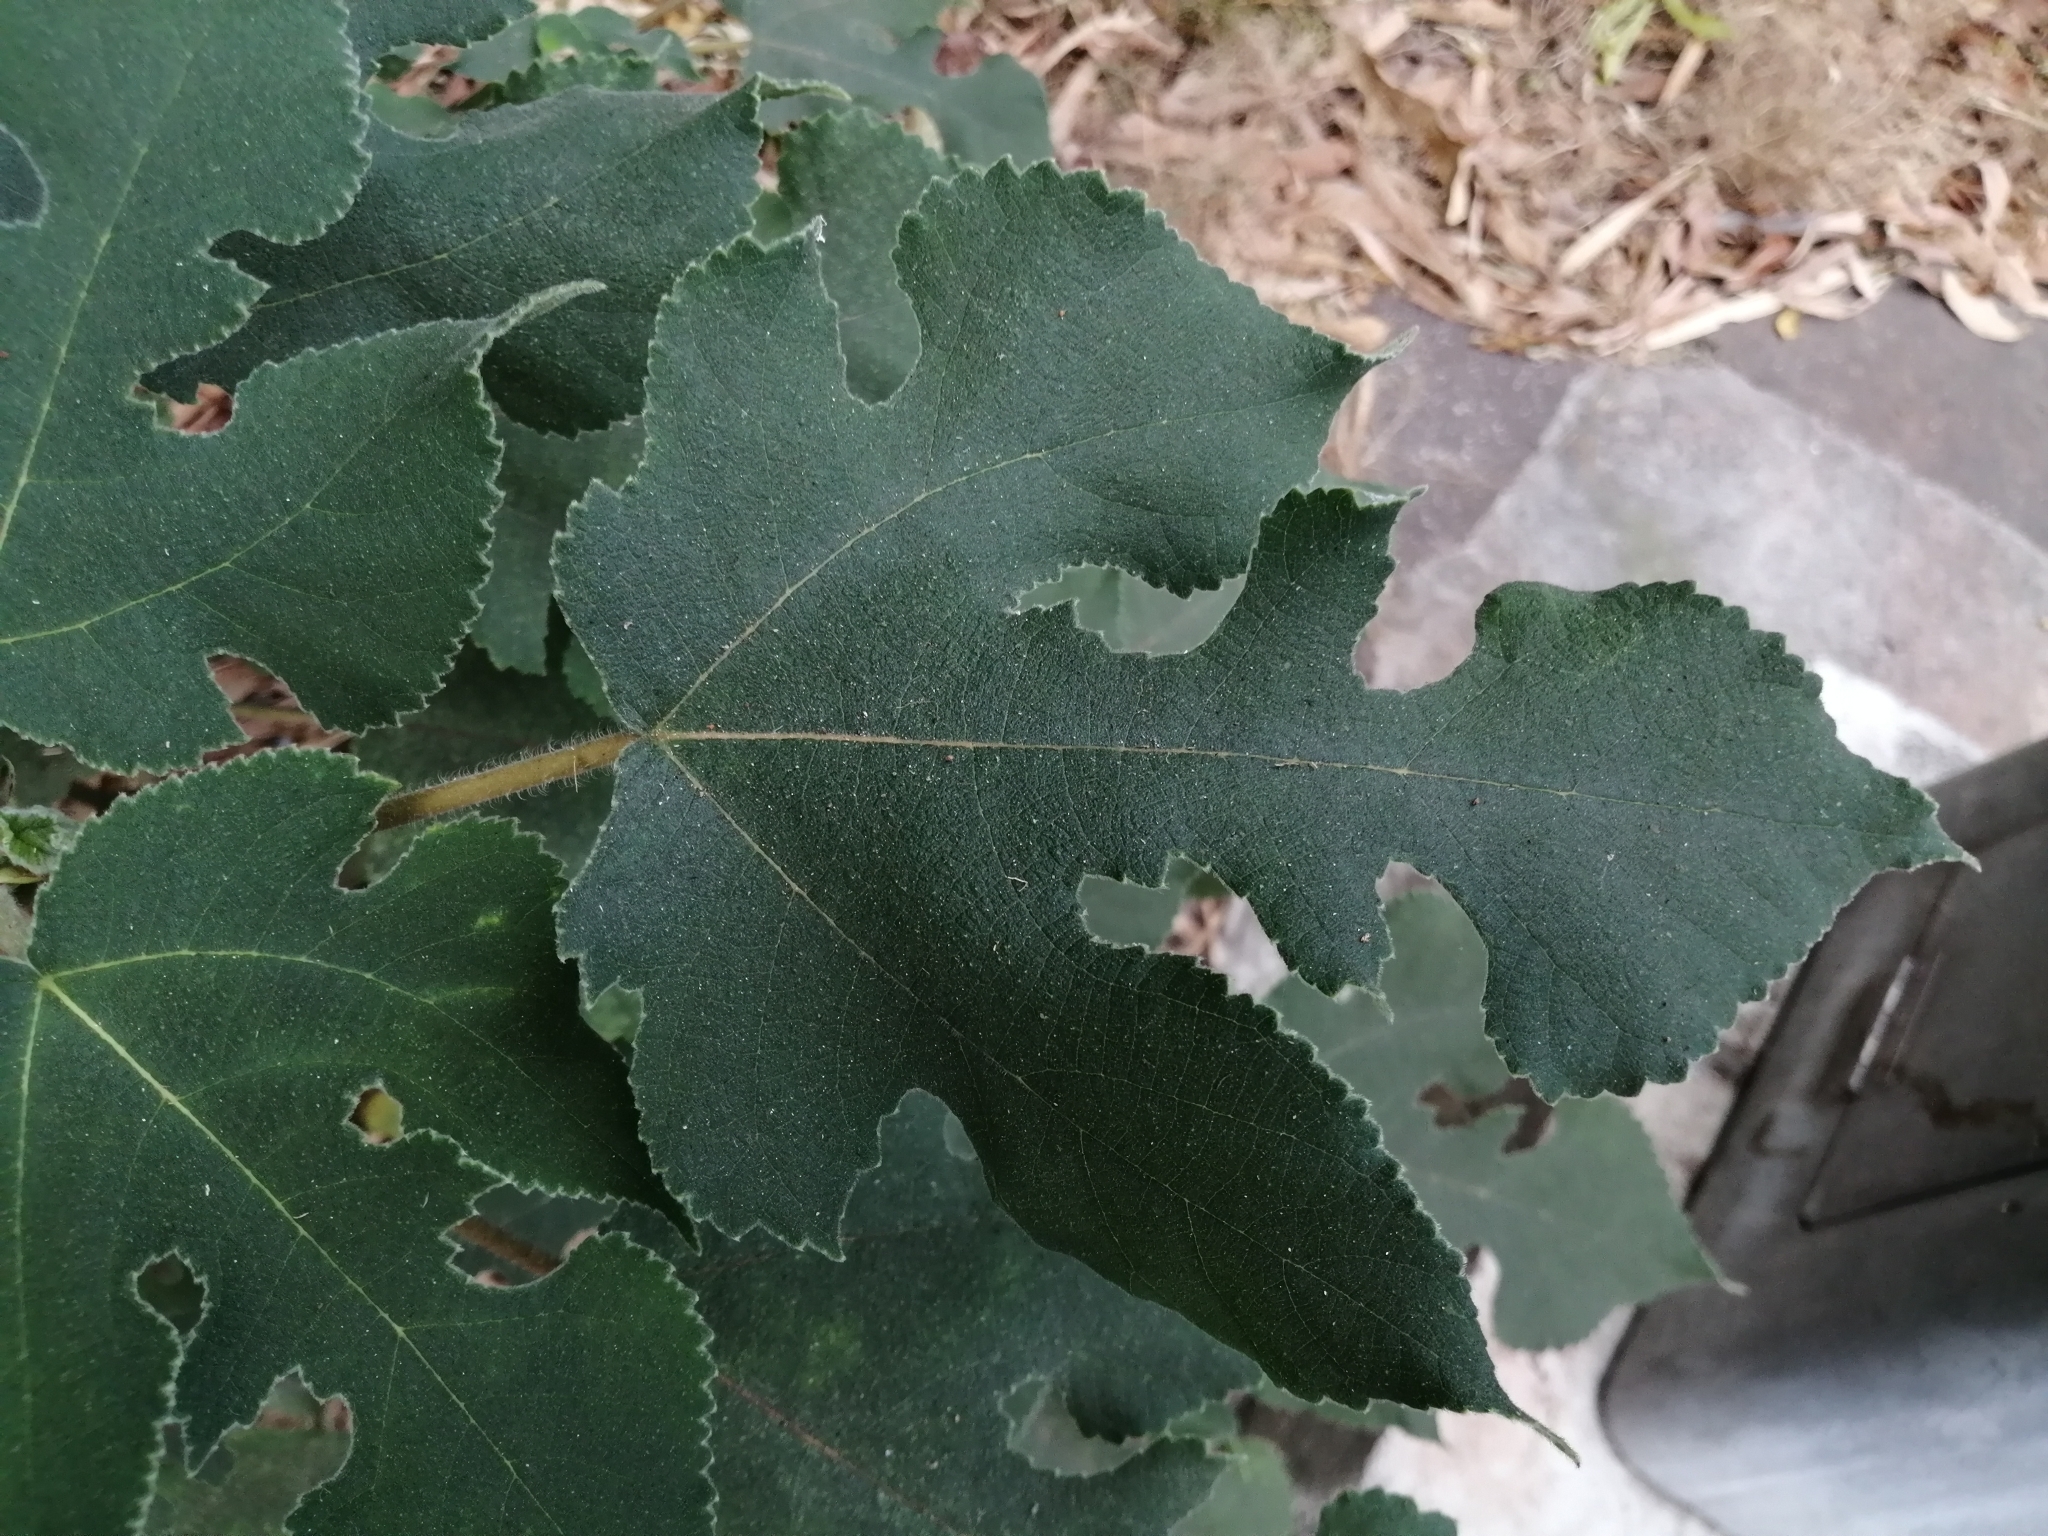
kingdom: Plantae
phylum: Tracheophyta
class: Magnoliopsida
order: Rosales
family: Moraceae
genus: Broussonetia
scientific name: Broussonetia papyrifera
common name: Paper mulberry
